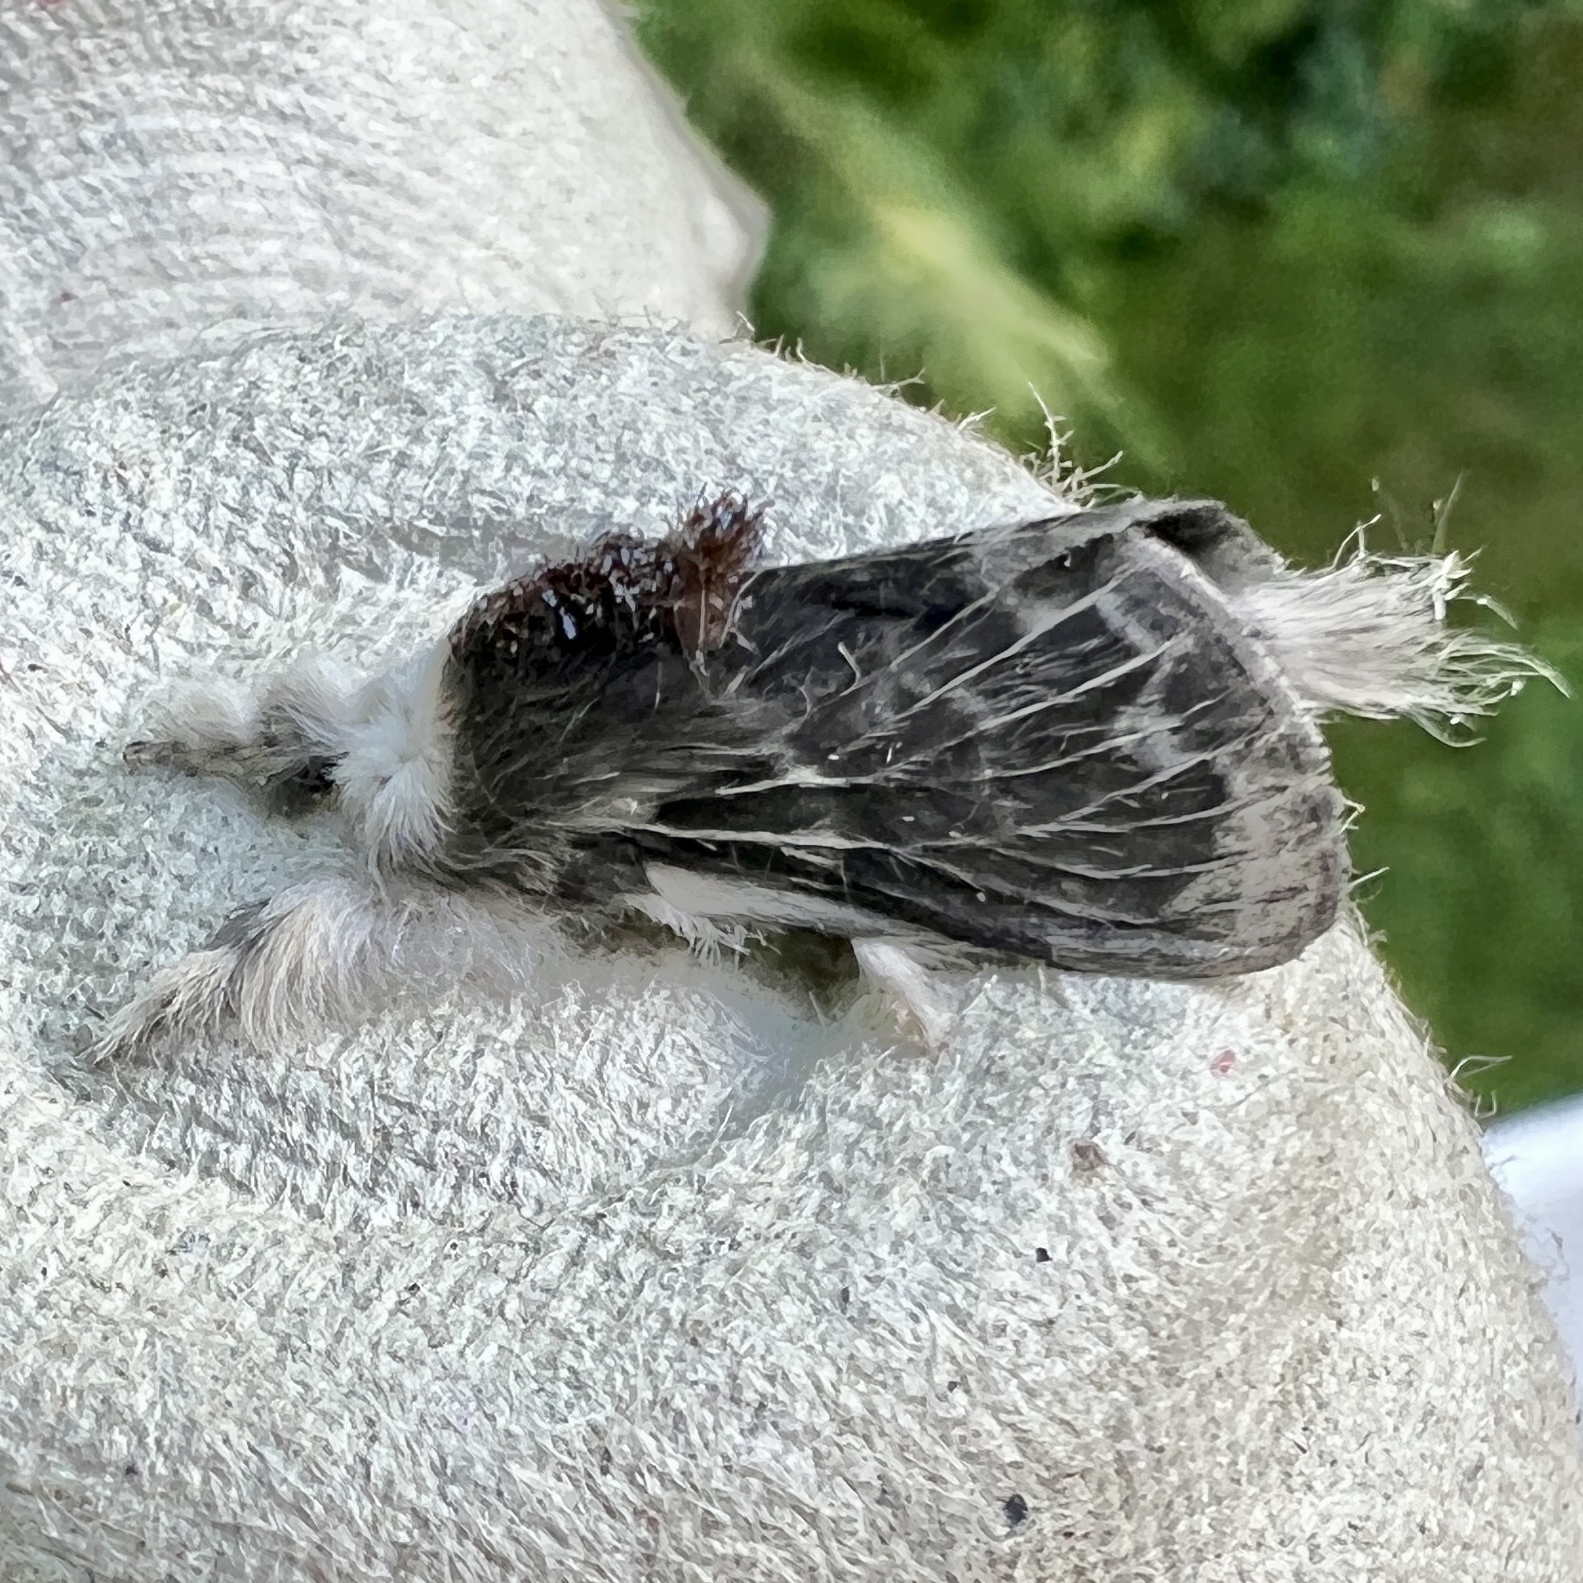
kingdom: Animalia
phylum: Arthropoda
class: Insecta
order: Lepidoptera
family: Lasiocampidae
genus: Tolype
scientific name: Tolype laricis
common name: Larch tolype moth
